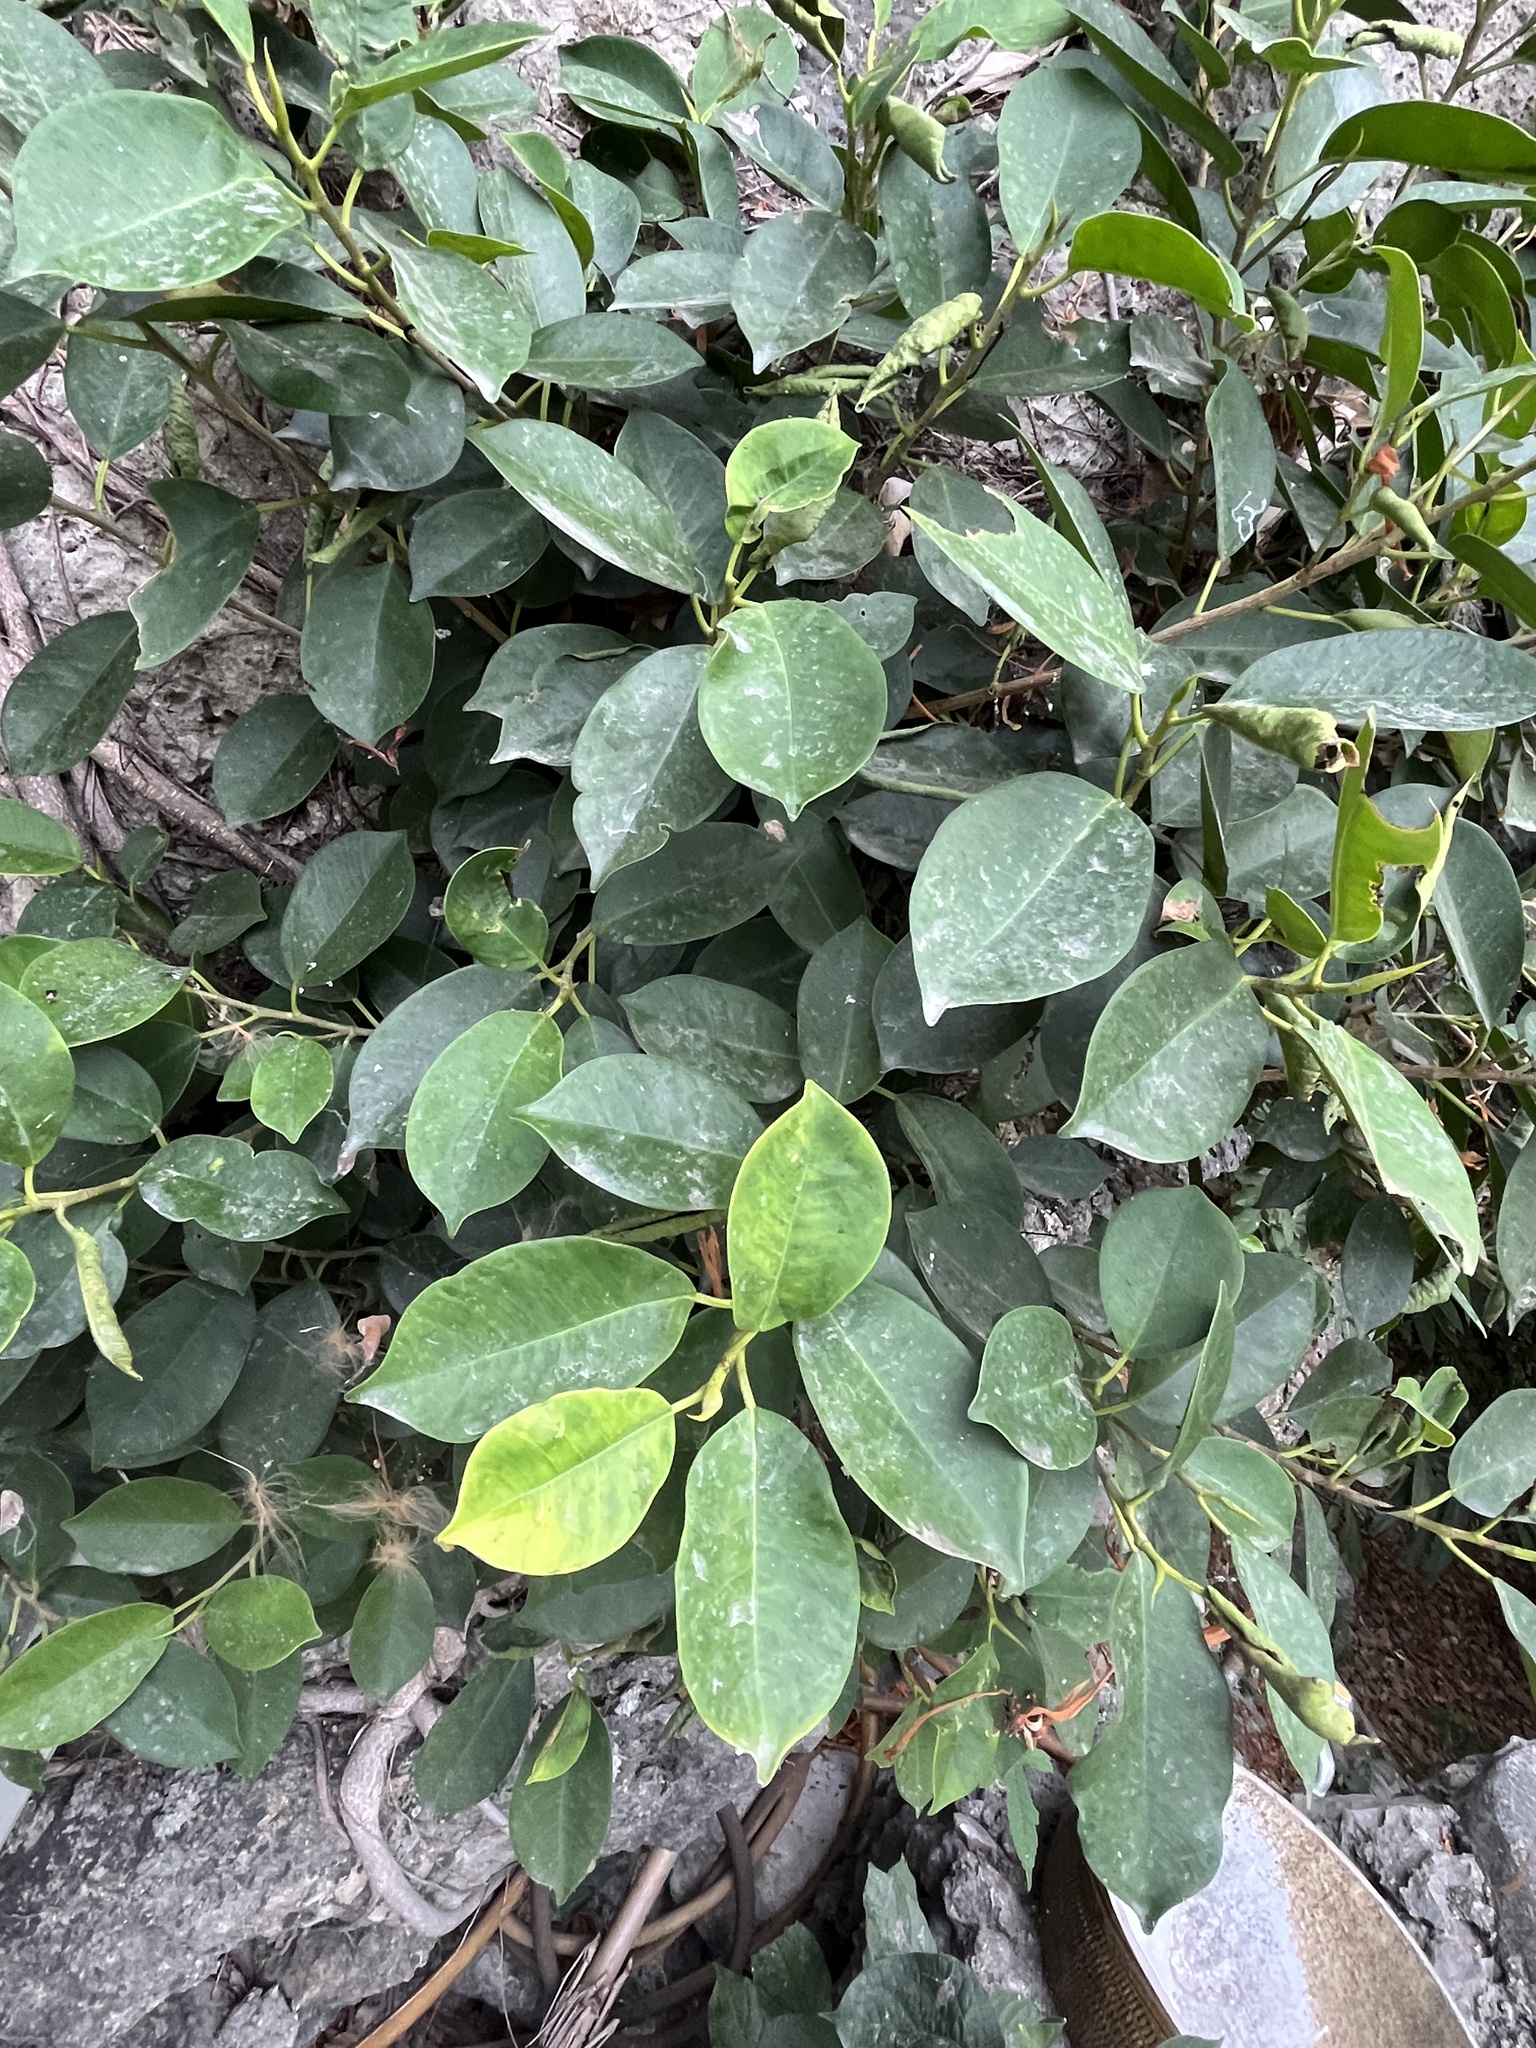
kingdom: Plantae
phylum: Tracheophyta
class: Magnoliopsida
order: Rosales
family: Moraceae
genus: Ficus
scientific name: Ficus microcarpa
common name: Chinese banyan
